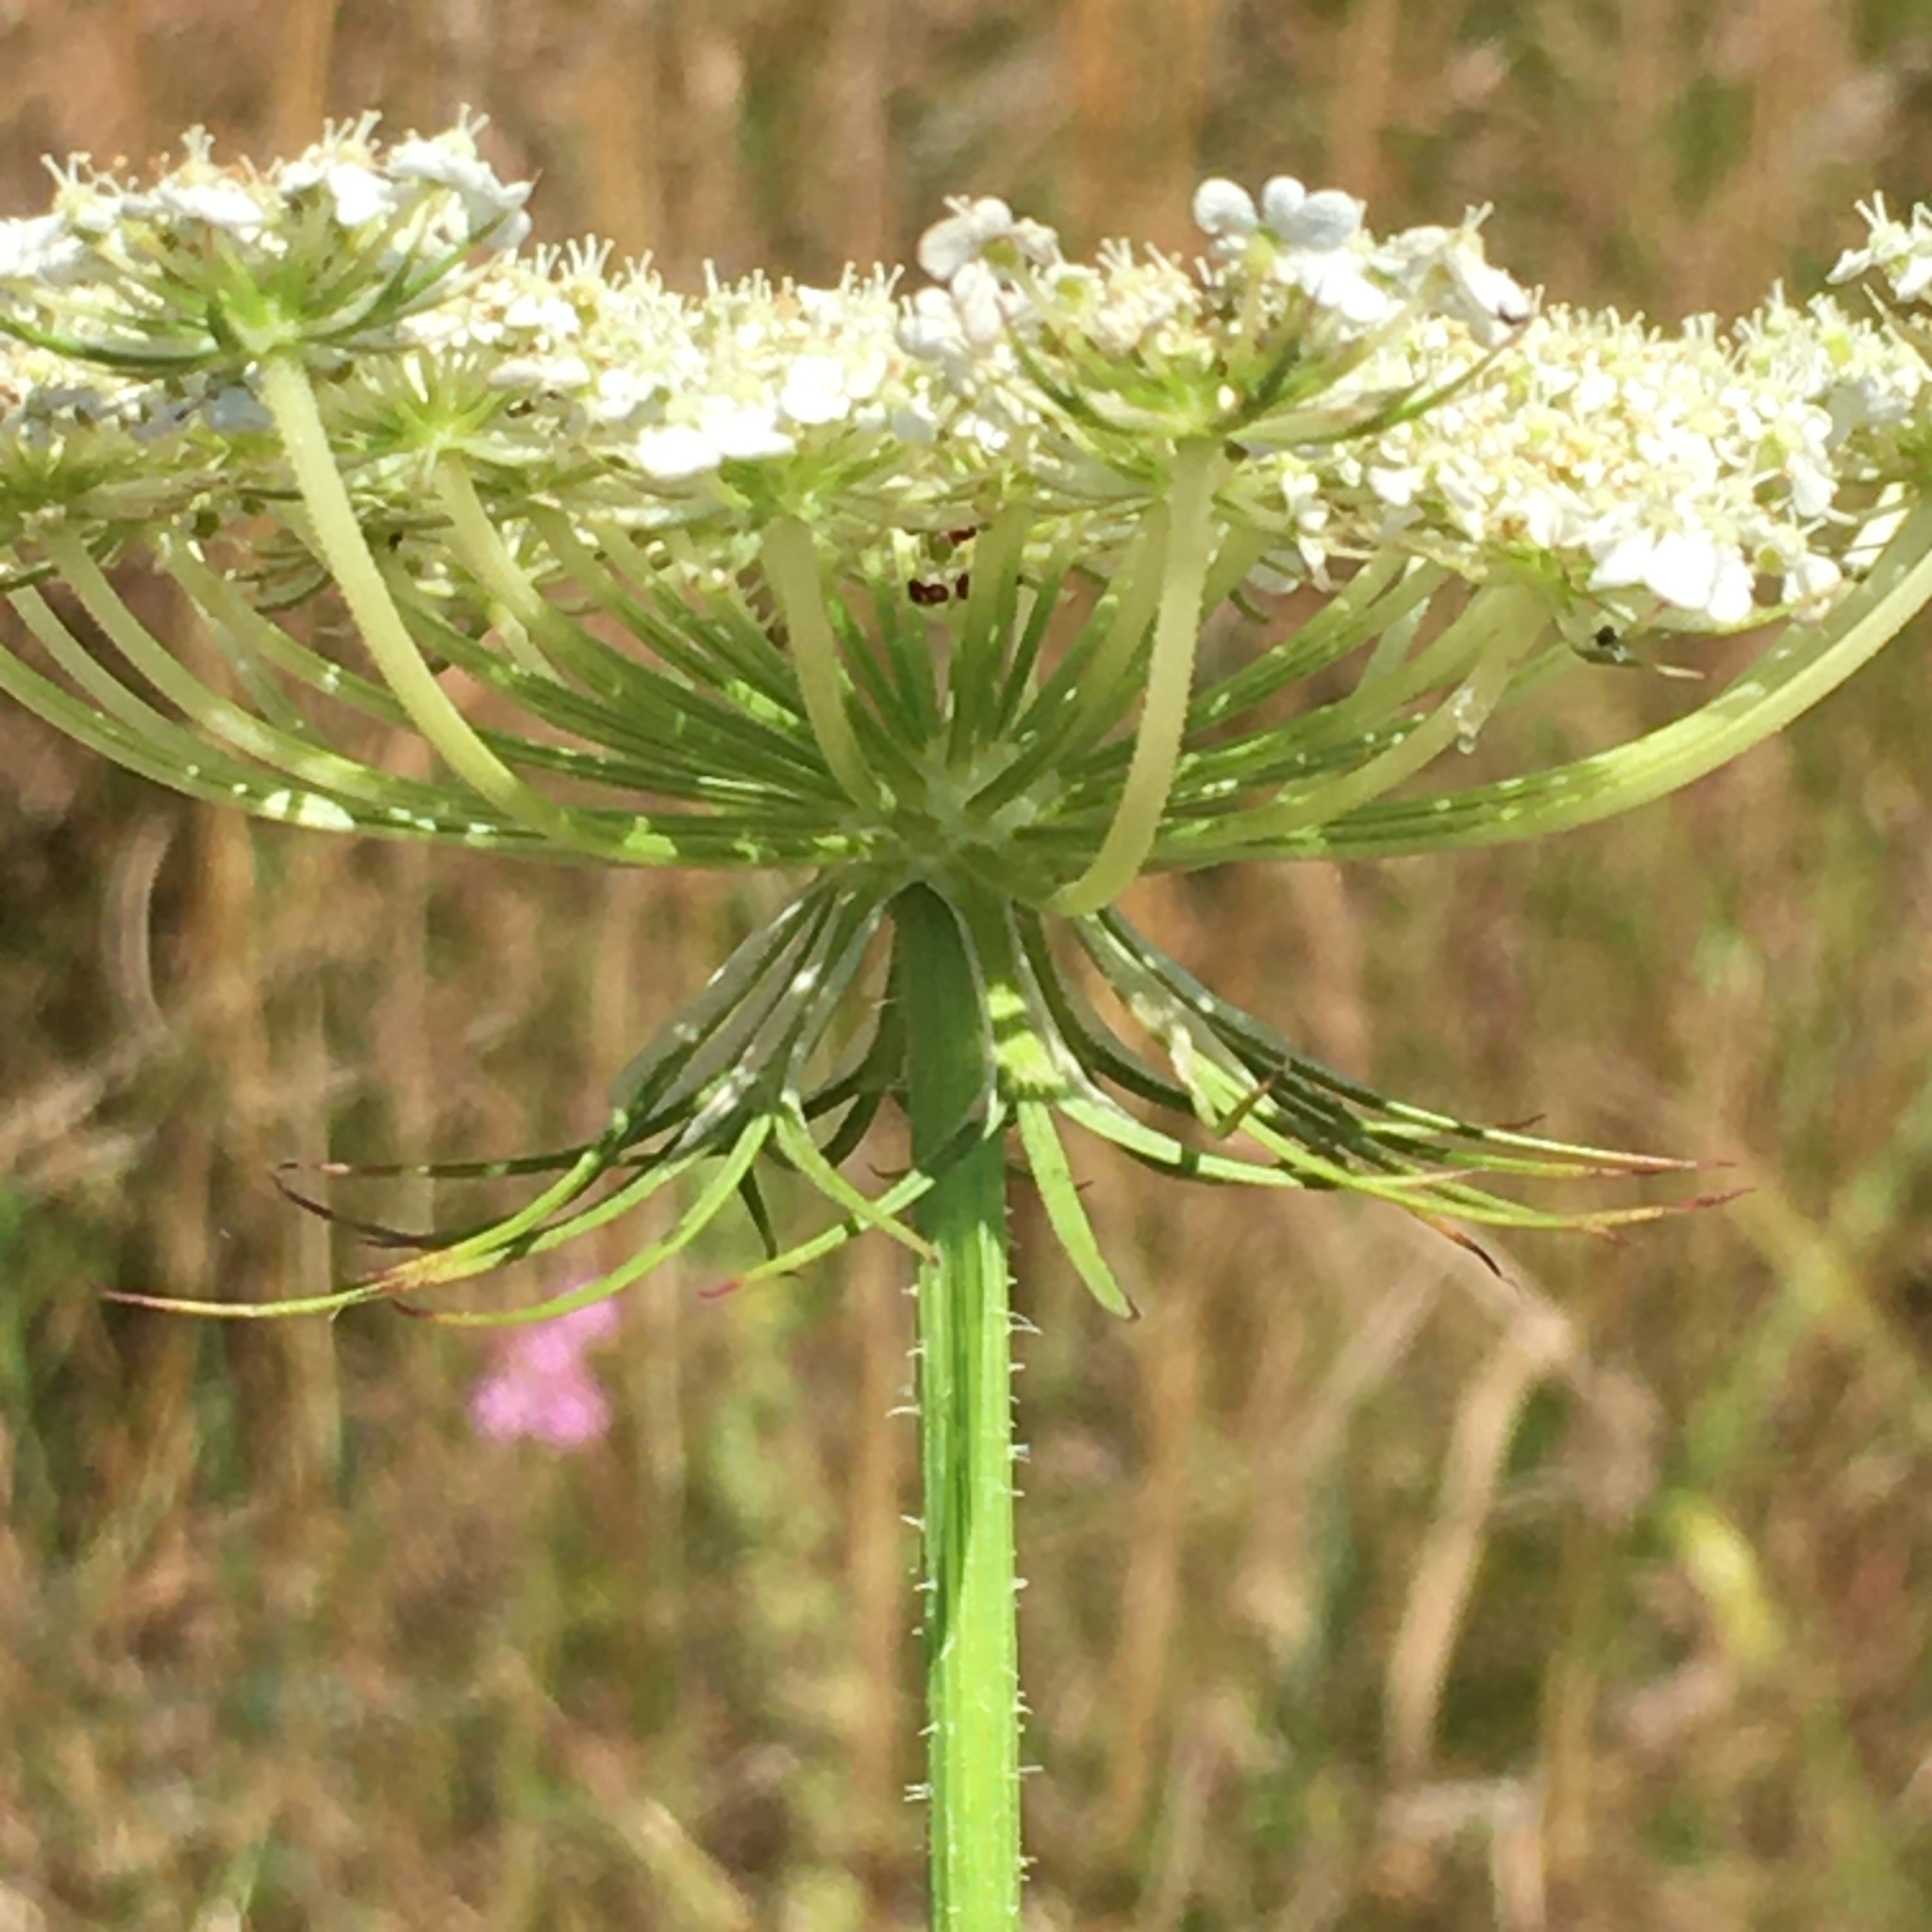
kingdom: Plantae
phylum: Tracheophyta
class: Magnoliopsida
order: Apiales
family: Apiaceae
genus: Daucus
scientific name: Daucus carota
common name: Wild carrot
